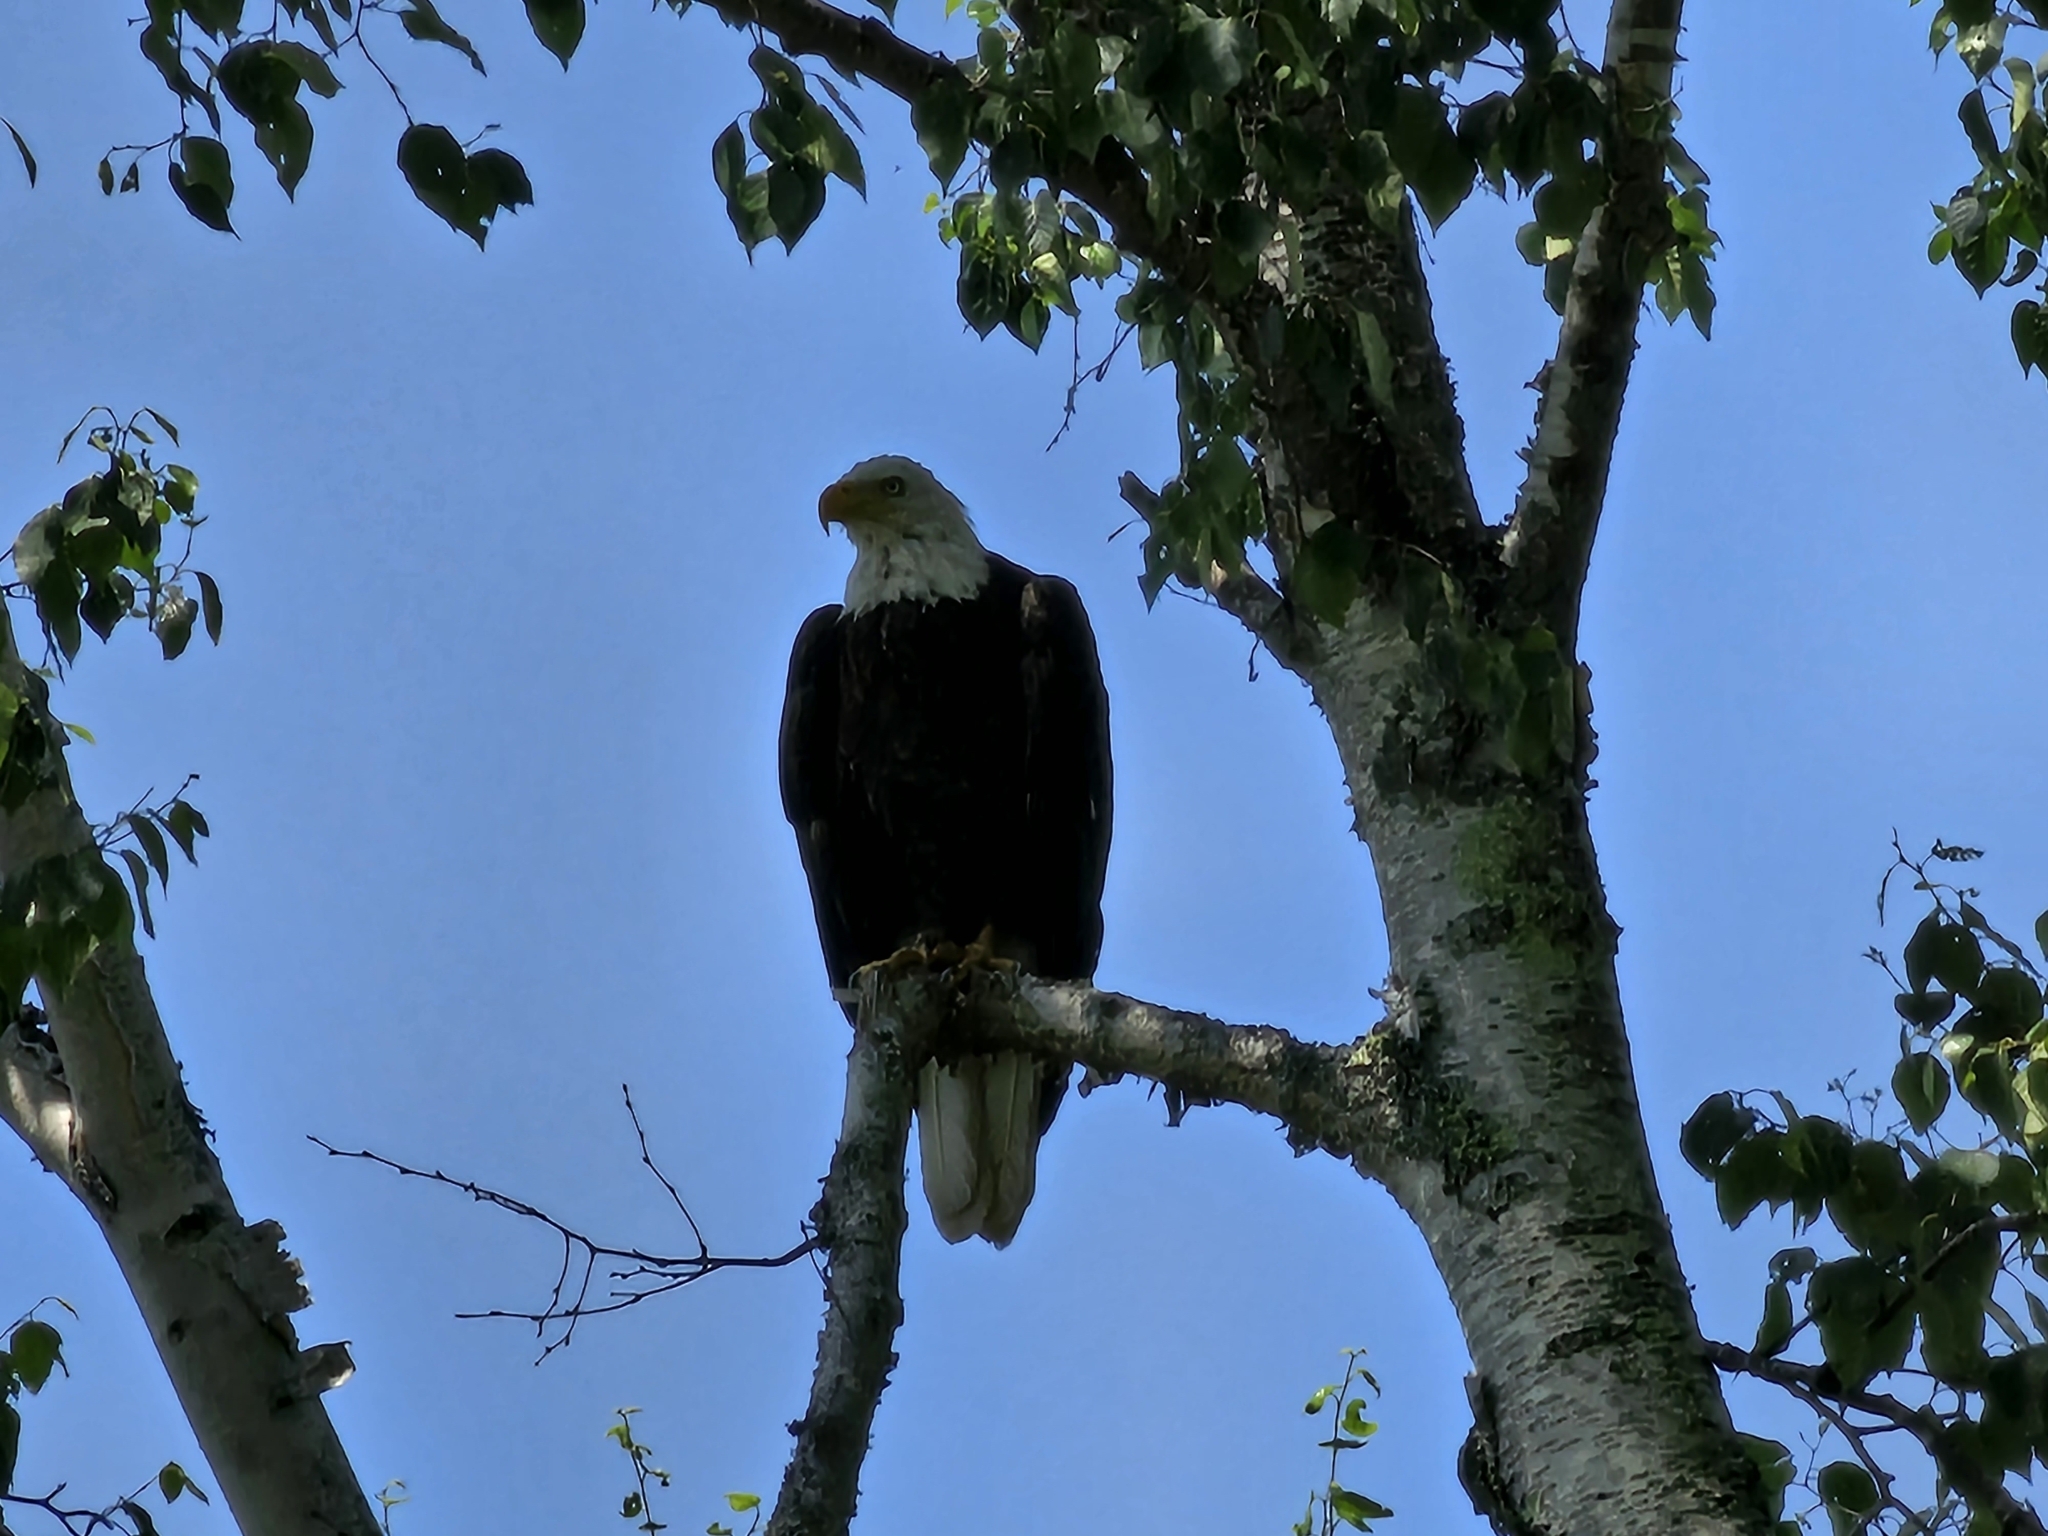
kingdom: Animalia
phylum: Chordata
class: Aves
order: Accipitriformes
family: Accipitridae
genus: Haliaeetus
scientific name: Haliaeetus leucocephalus
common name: Bald eagle
